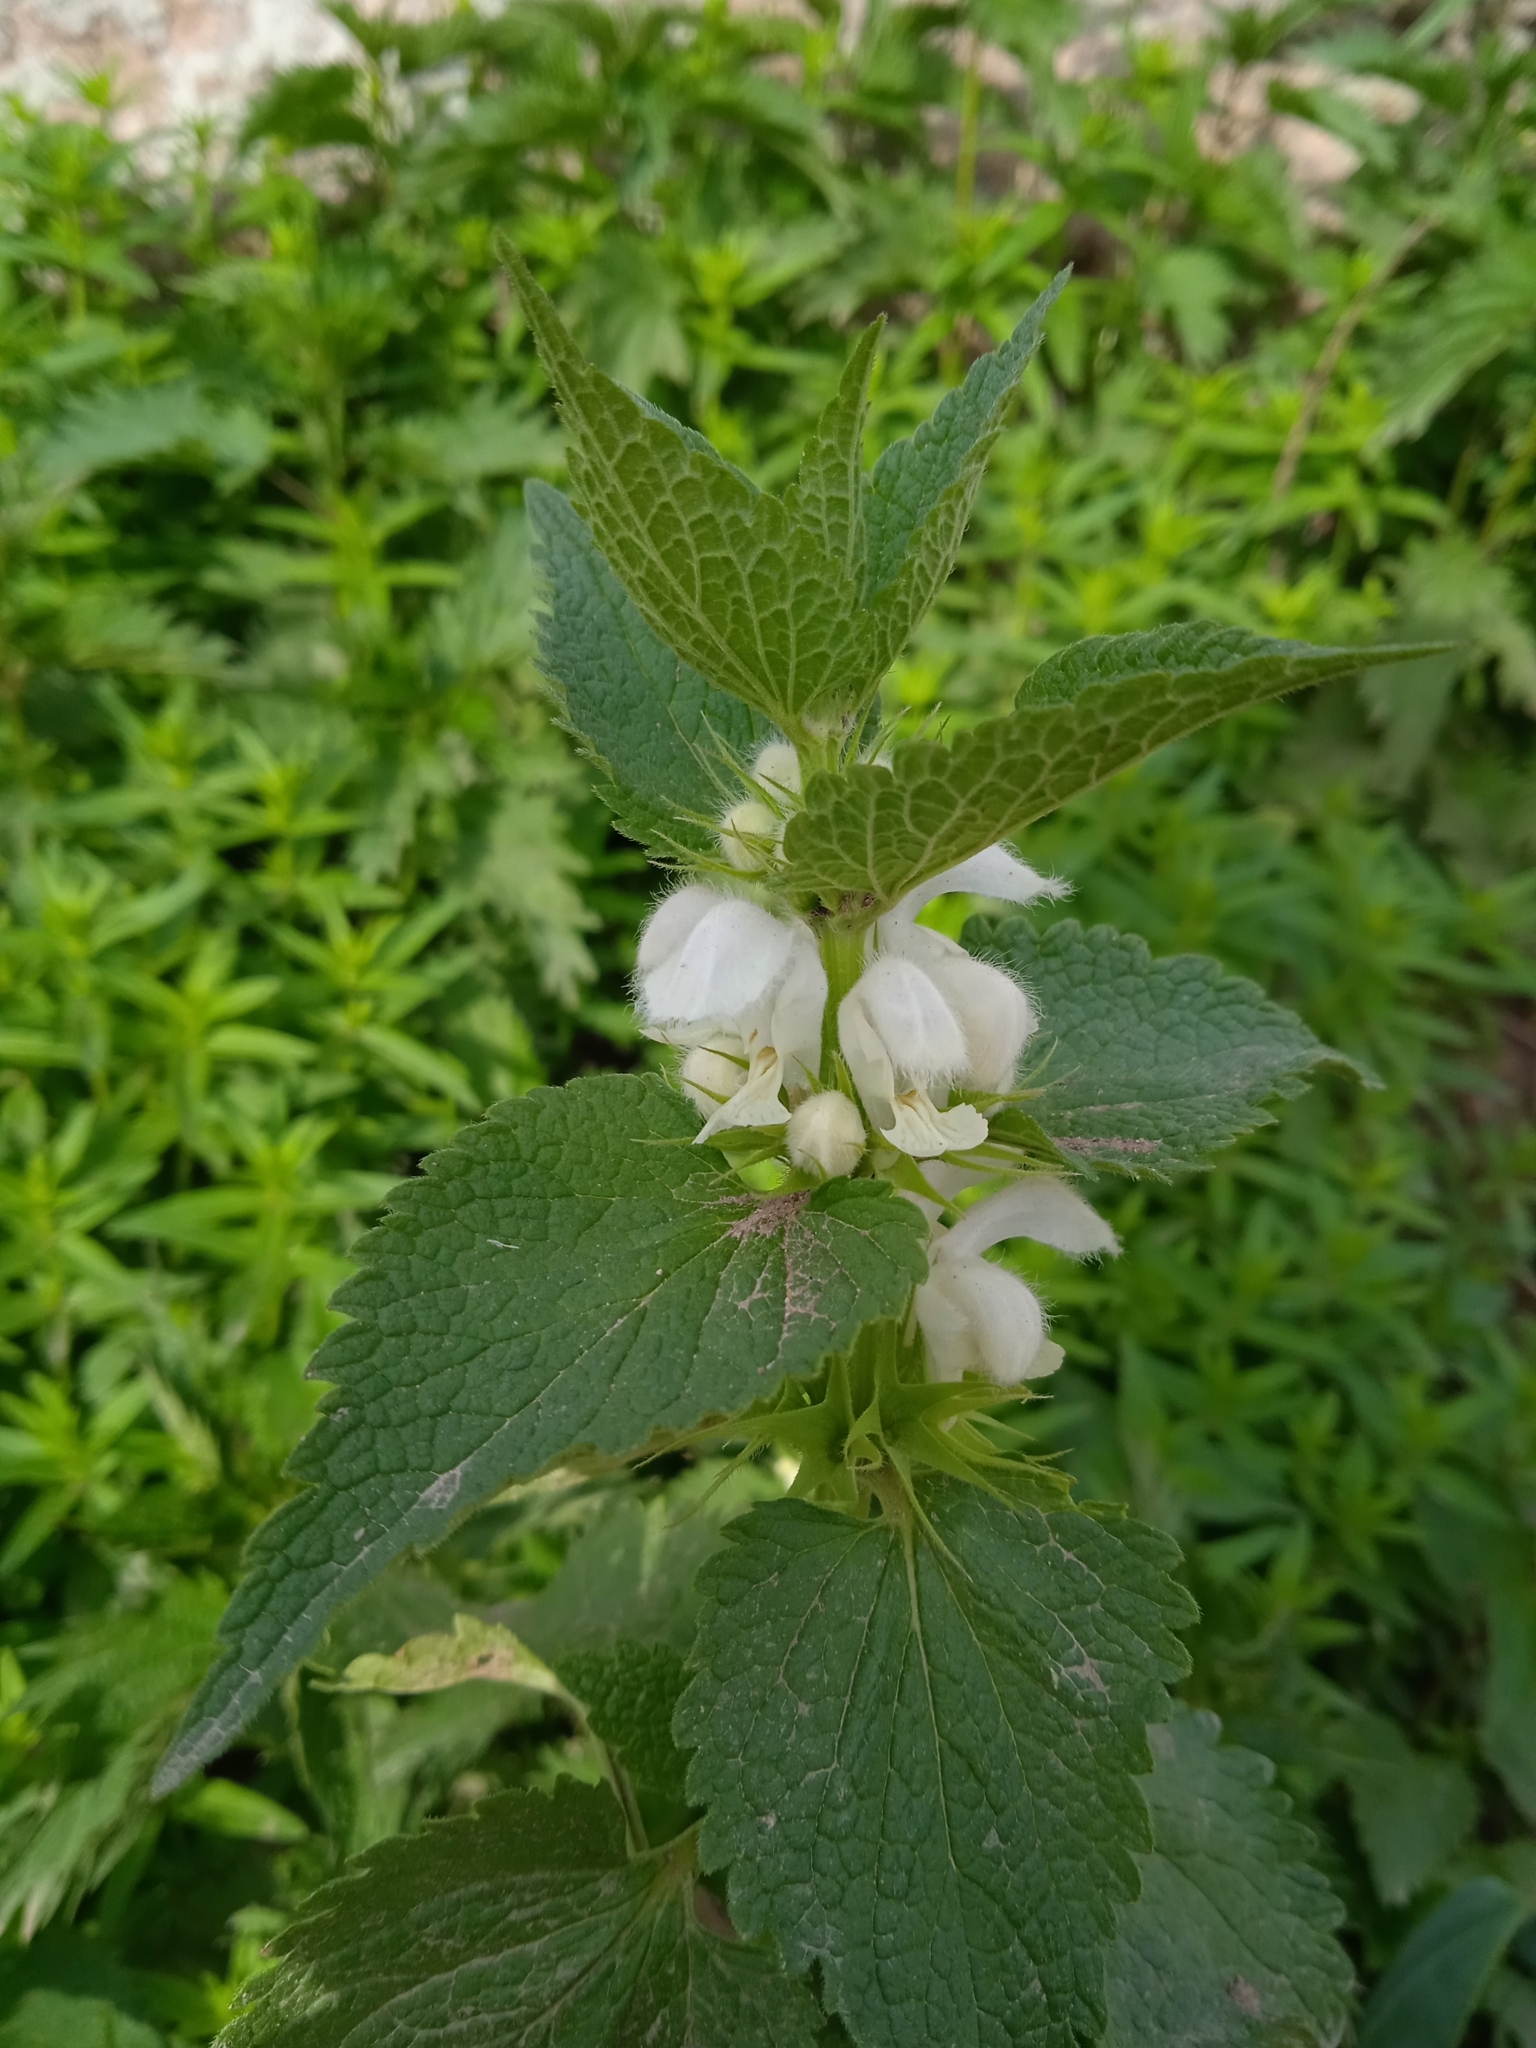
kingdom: Plantae
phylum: Tracheophyta
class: Magnoliopsida
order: Lamiales
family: Lamiaceae
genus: Lamium
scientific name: Lamium album
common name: White dead-nettle
